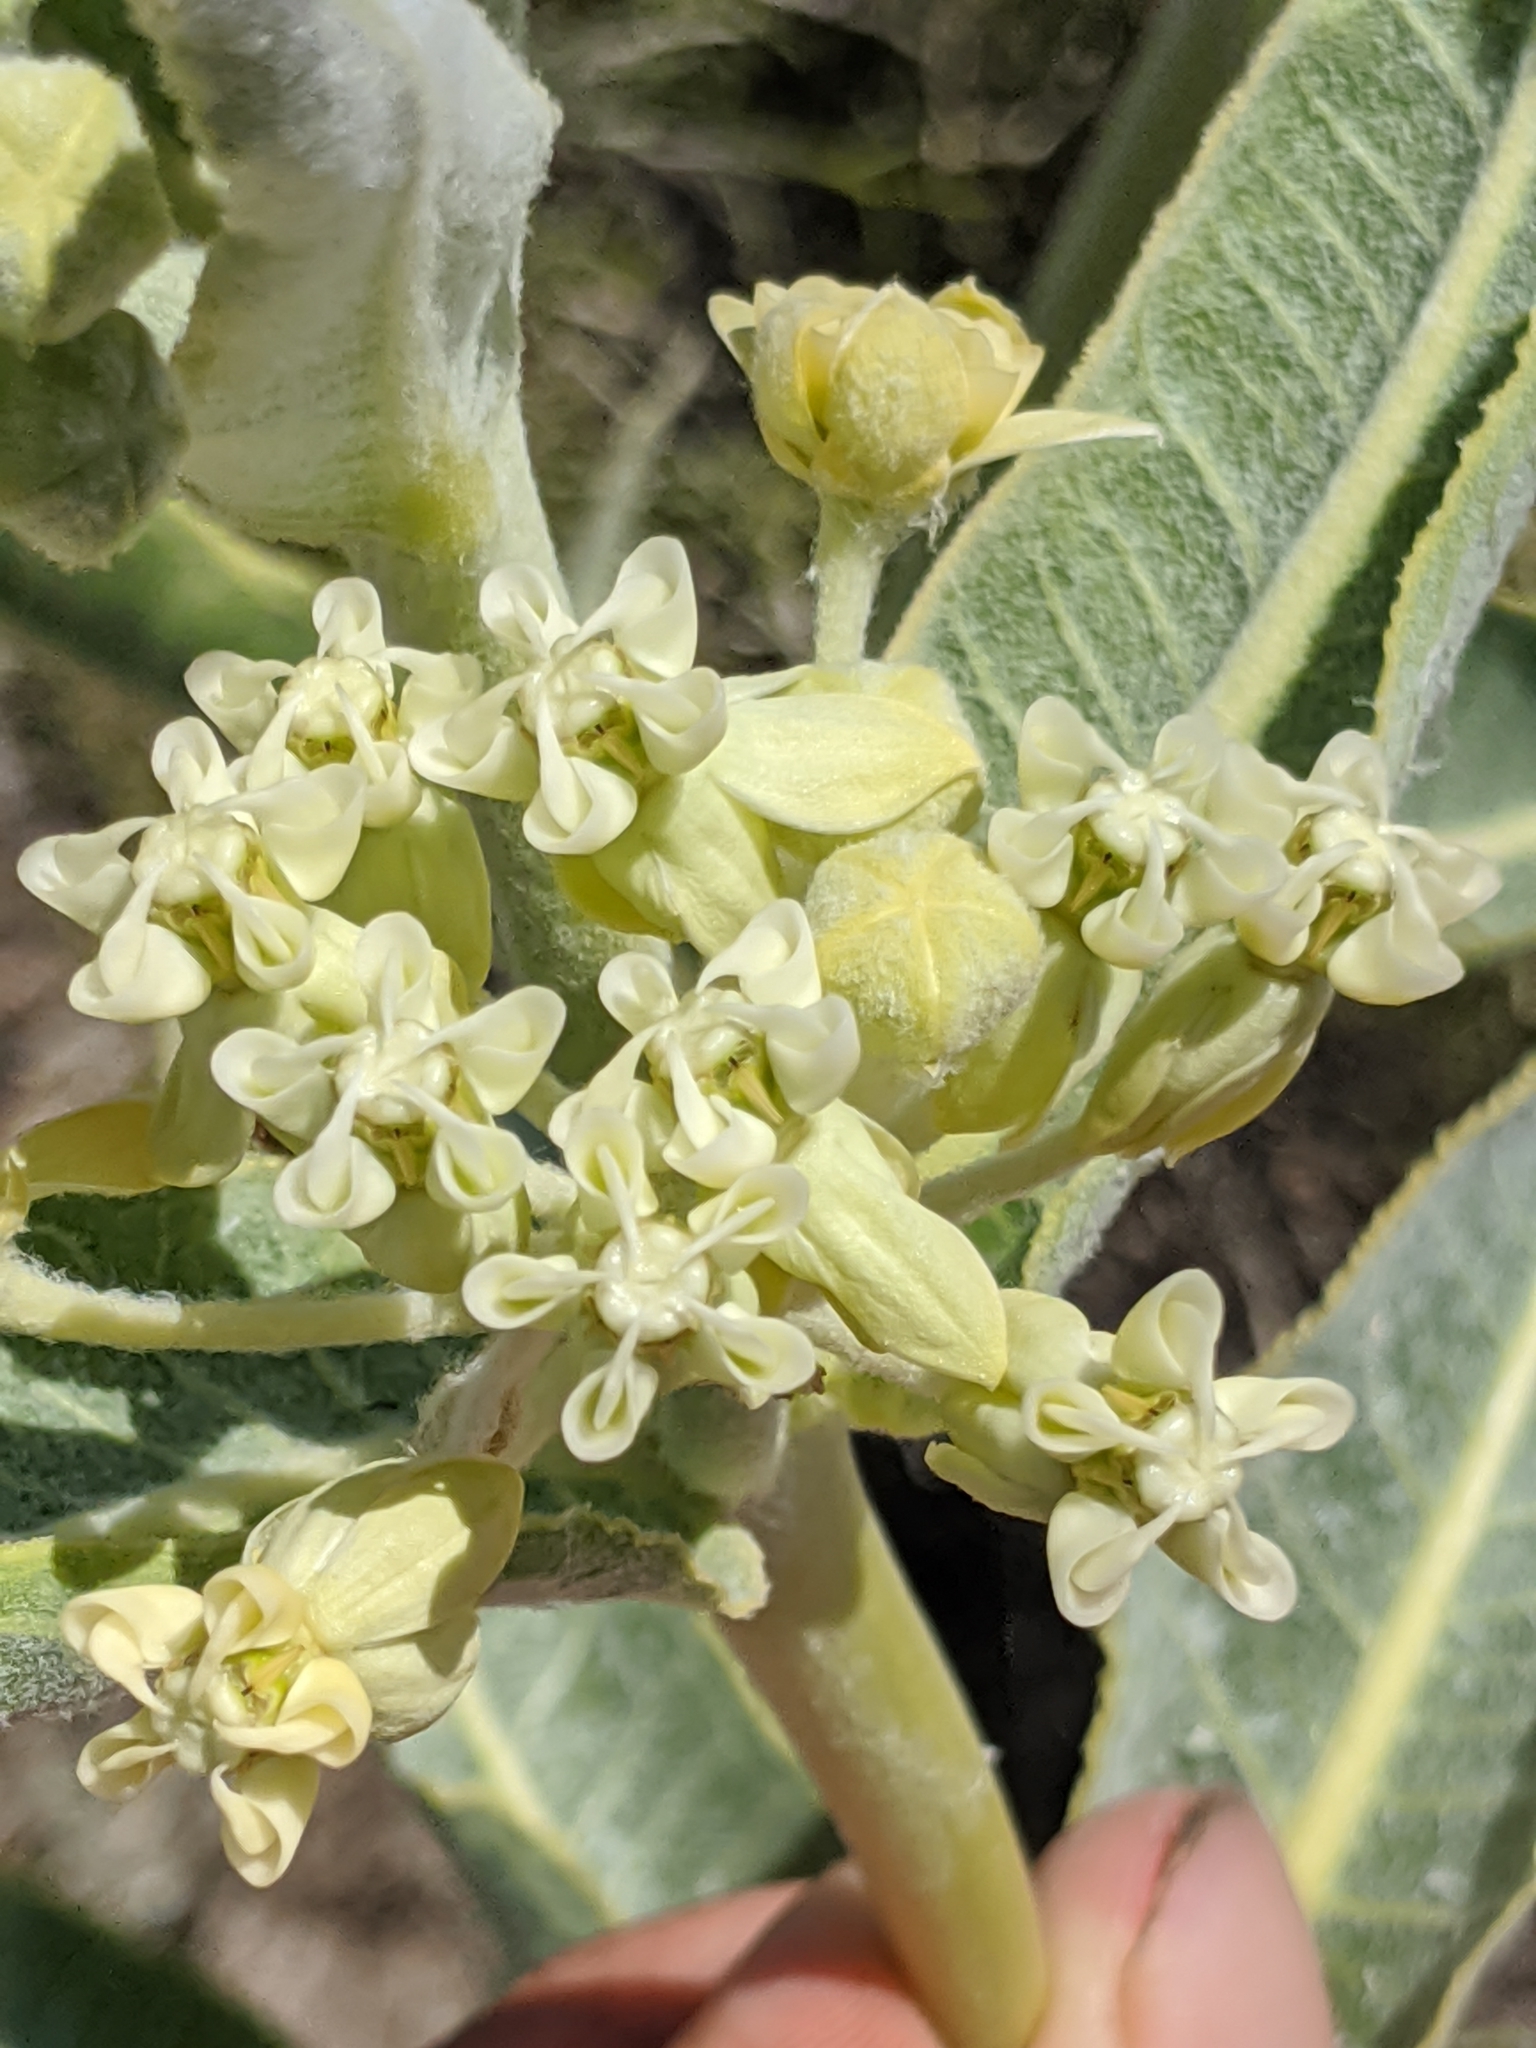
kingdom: Plantae
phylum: Tracheophyta
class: Magnoliopsida
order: Gentianales
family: Apocynaceae
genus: Asclepias
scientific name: Asclepias erosa
